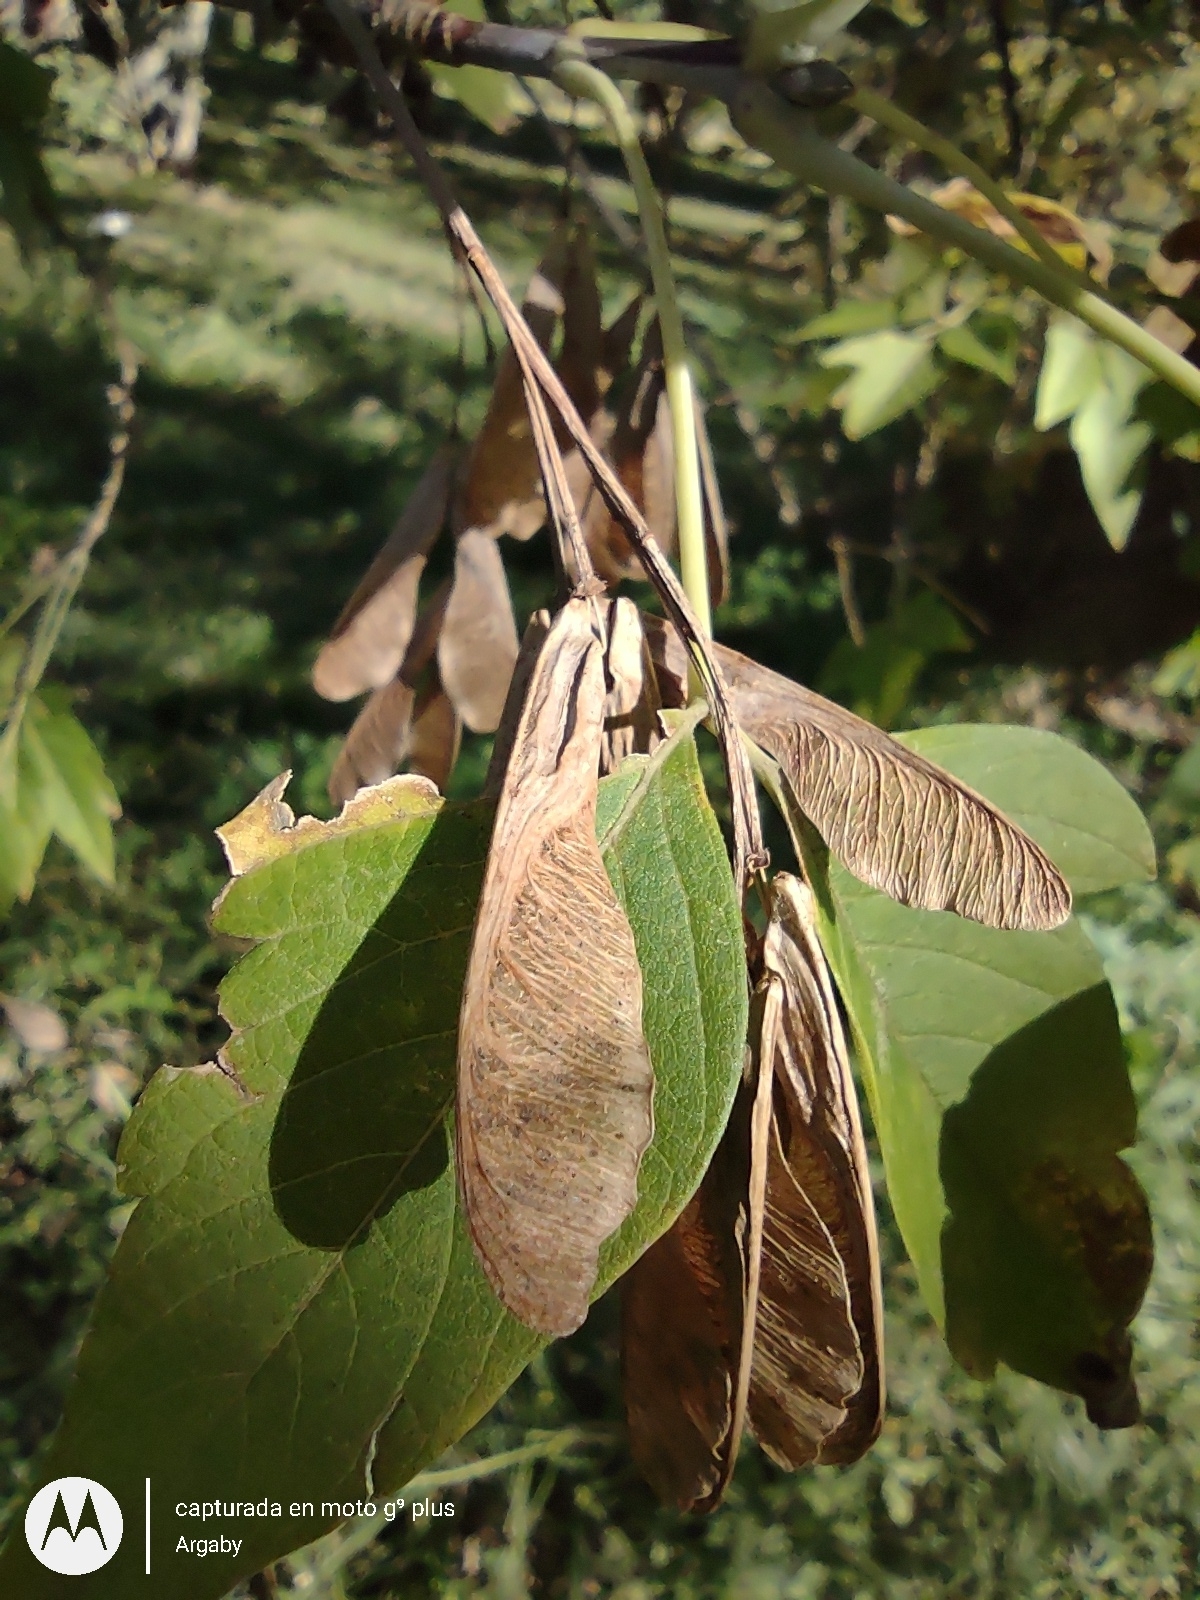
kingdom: Plantae
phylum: Tracheophyta
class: Magnoliopsida
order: Sapindales
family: Sapindaceae
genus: Acer
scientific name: Acer negundo
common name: Ashleaf maple
